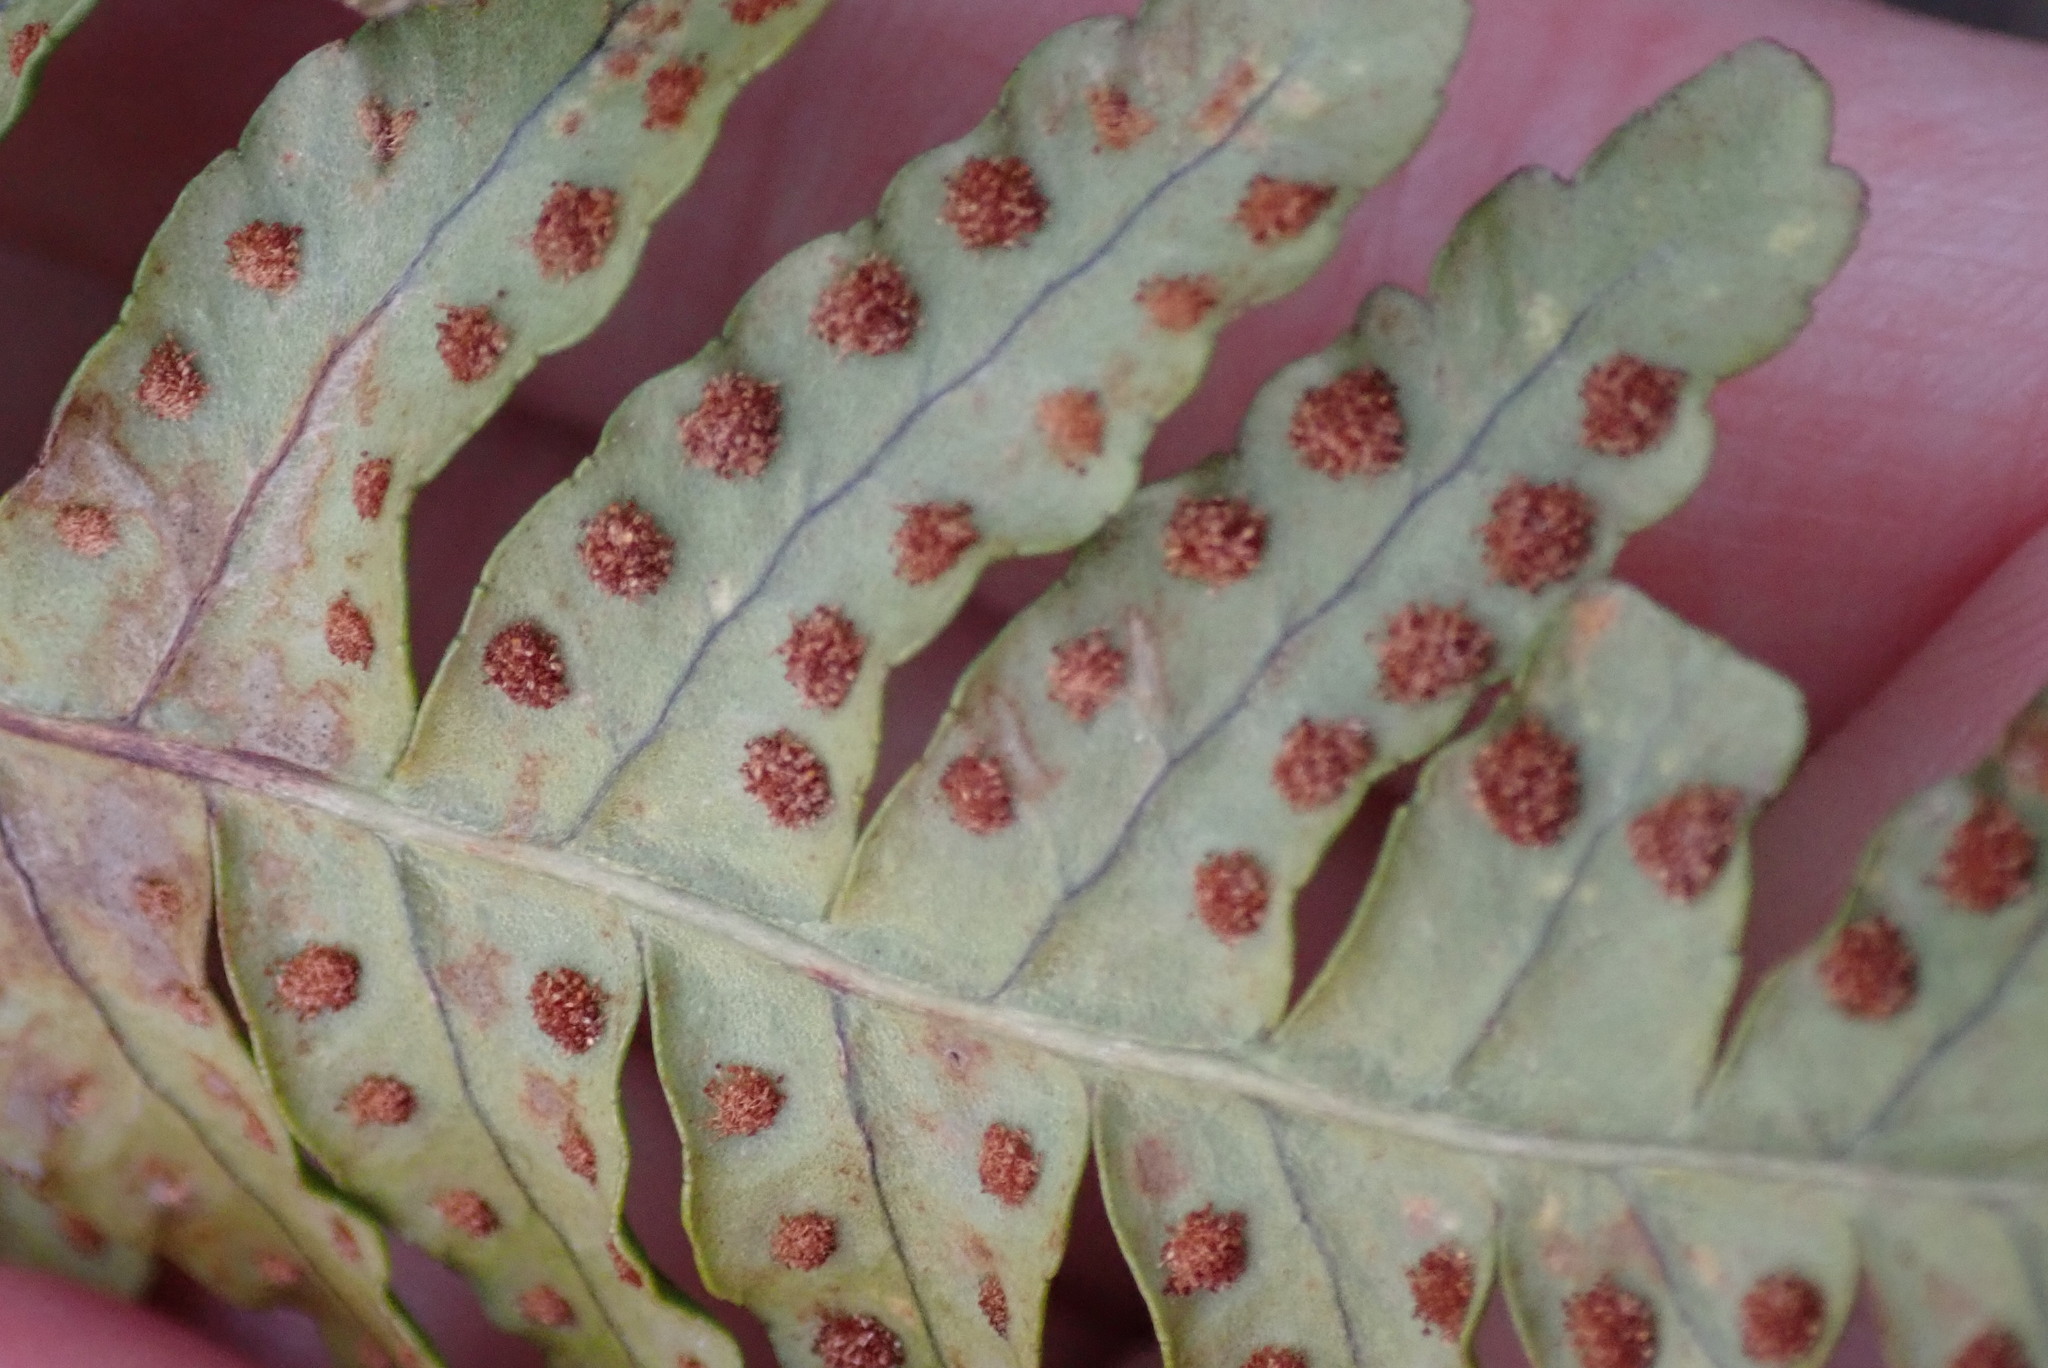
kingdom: Plantae
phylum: Tracheophyta
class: Polypodiopsida
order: Polypodiales
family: Polypodiaceae
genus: Polypodium
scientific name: Polypodium virginianum
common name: American wall fern
